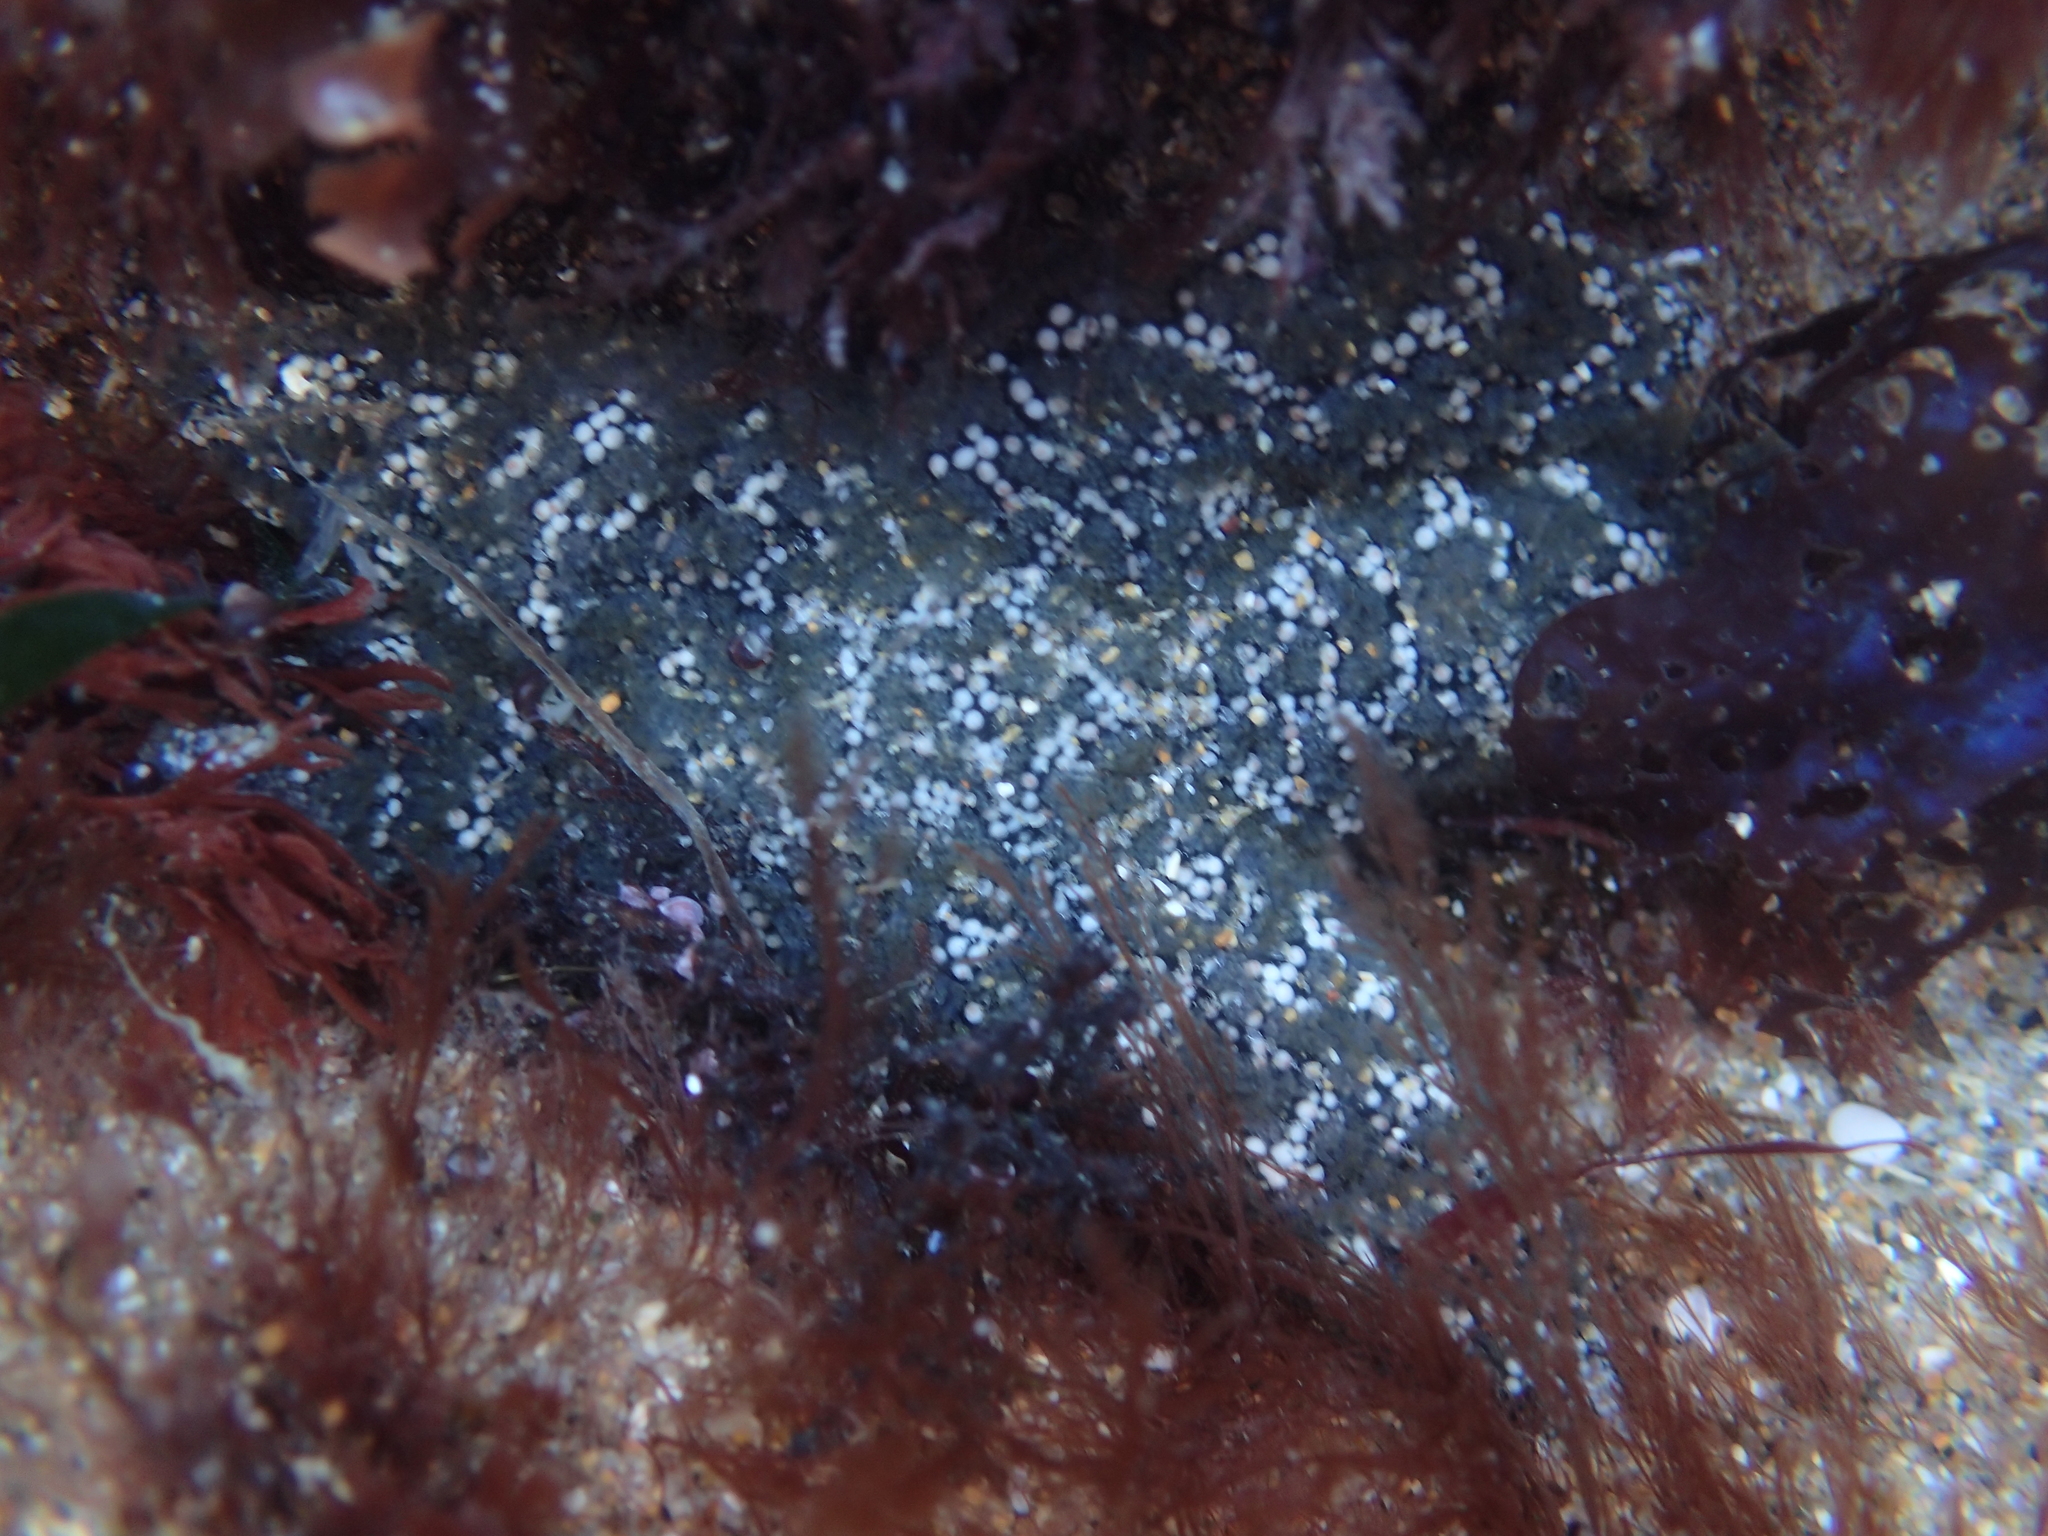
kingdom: Animalia
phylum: Echinodermata
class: Asteroidea
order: Forcipulatida
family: Asteriidae
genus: Pisaster
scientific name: Pisaster ochraceus
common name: Ochre stars
